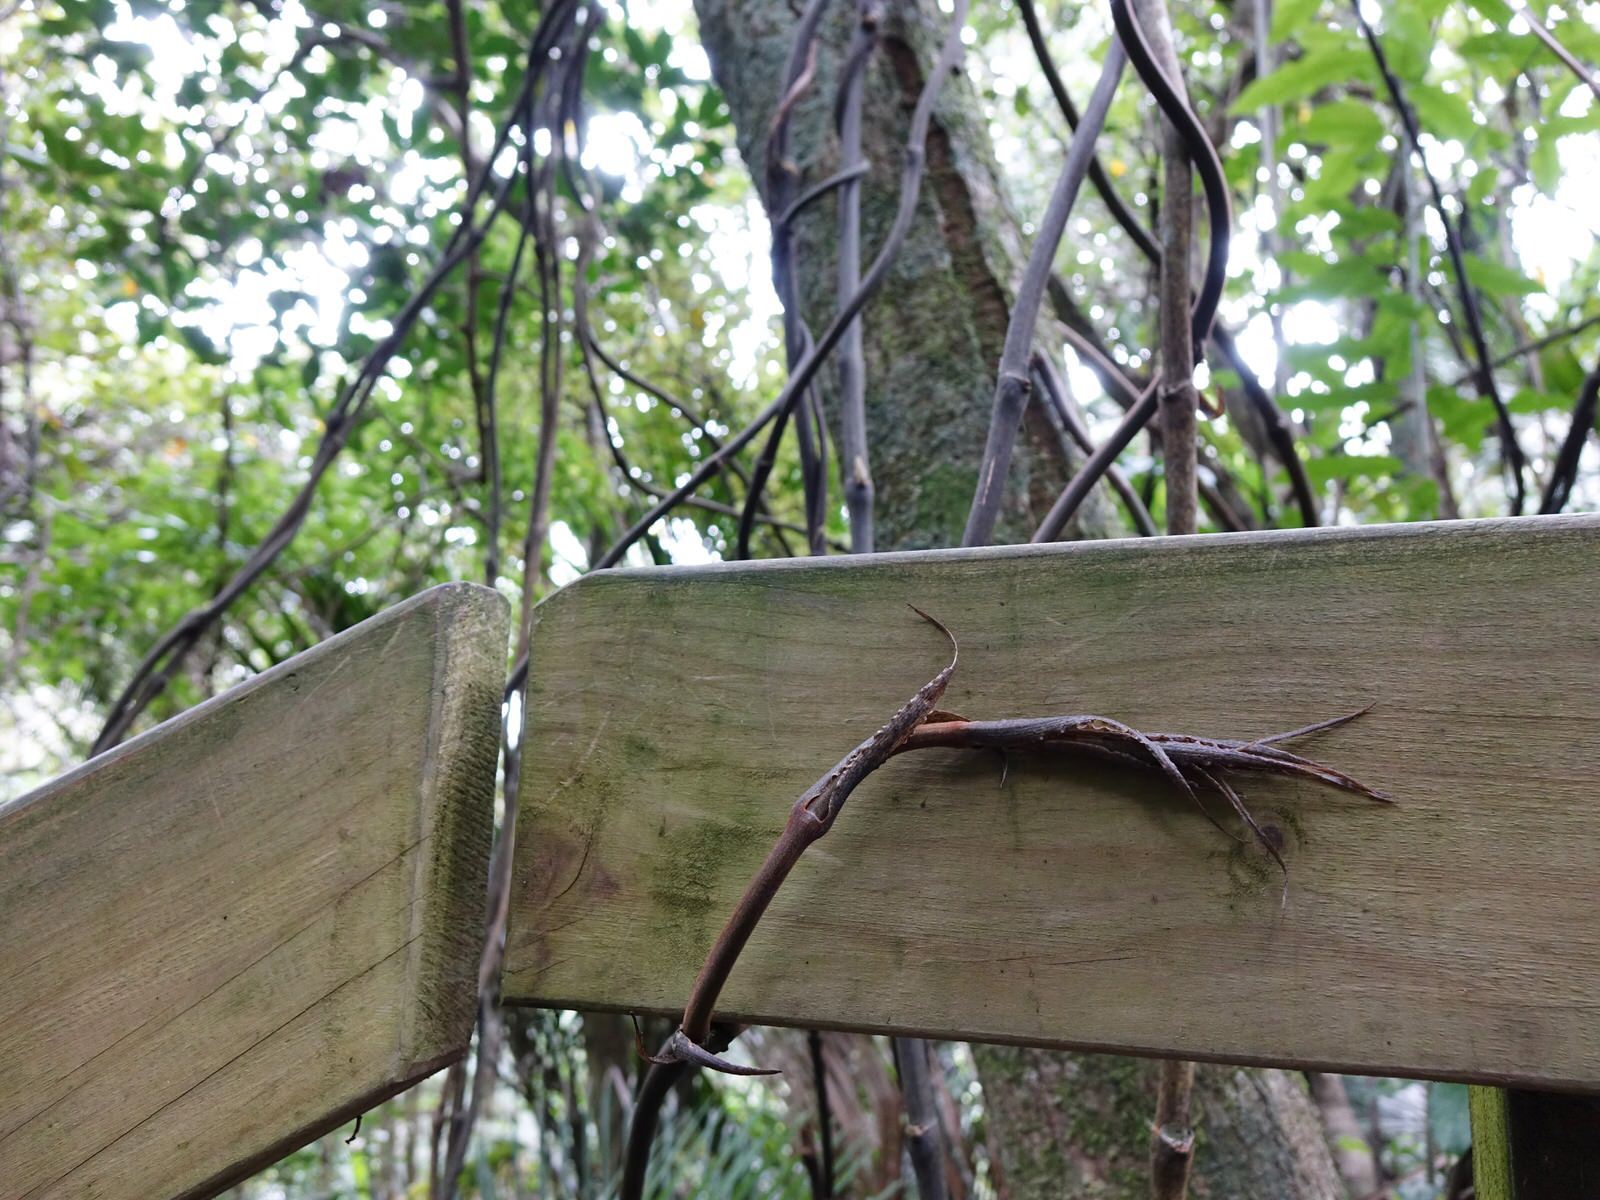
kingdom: Plantae
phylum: Tracheophyta
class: Liliopsida
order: Liliales
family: Ripogonaceae
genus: Ripogonum
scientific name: Ripogonum scandens
